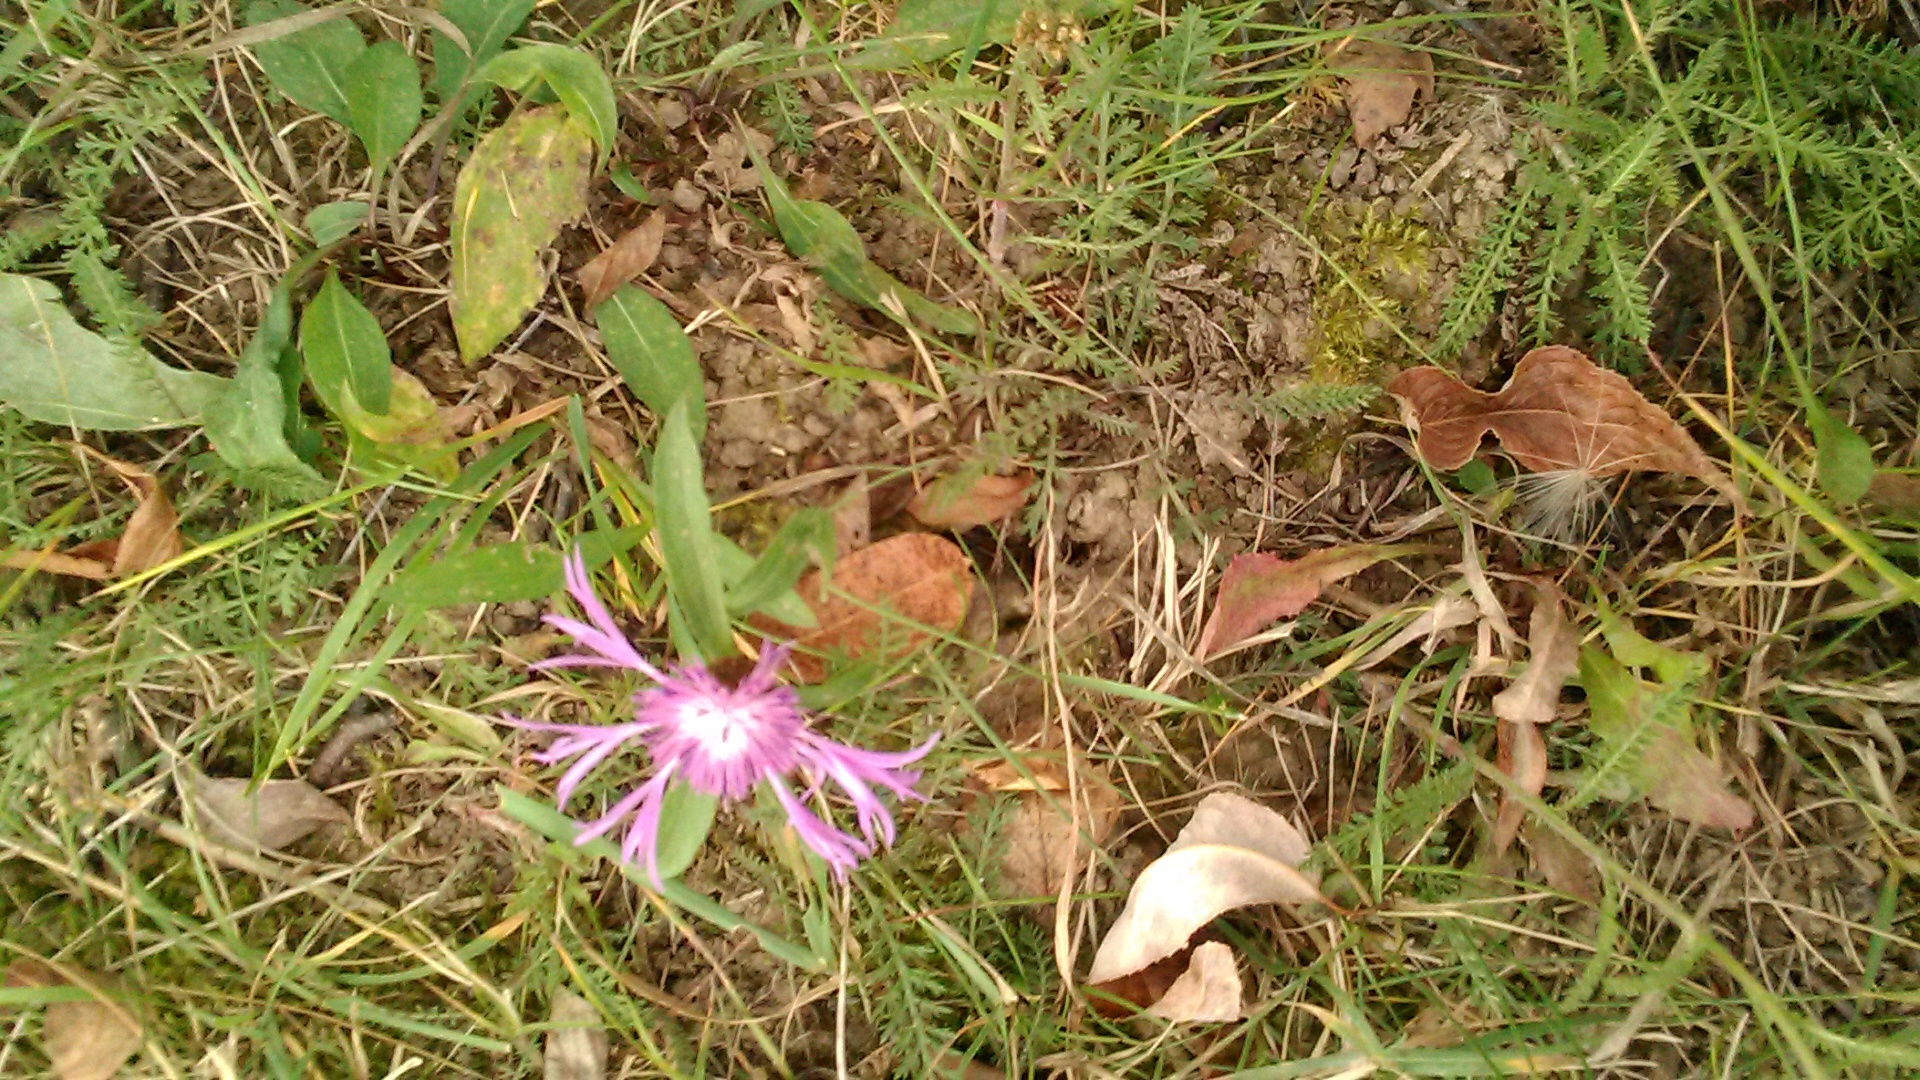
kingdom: Plantae
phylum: Tracheophyta
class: Magnoliopsida
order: Asterales
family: Asteraceae
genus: Centaurea
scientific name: Centaurea jacea
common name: Brown knapweed
